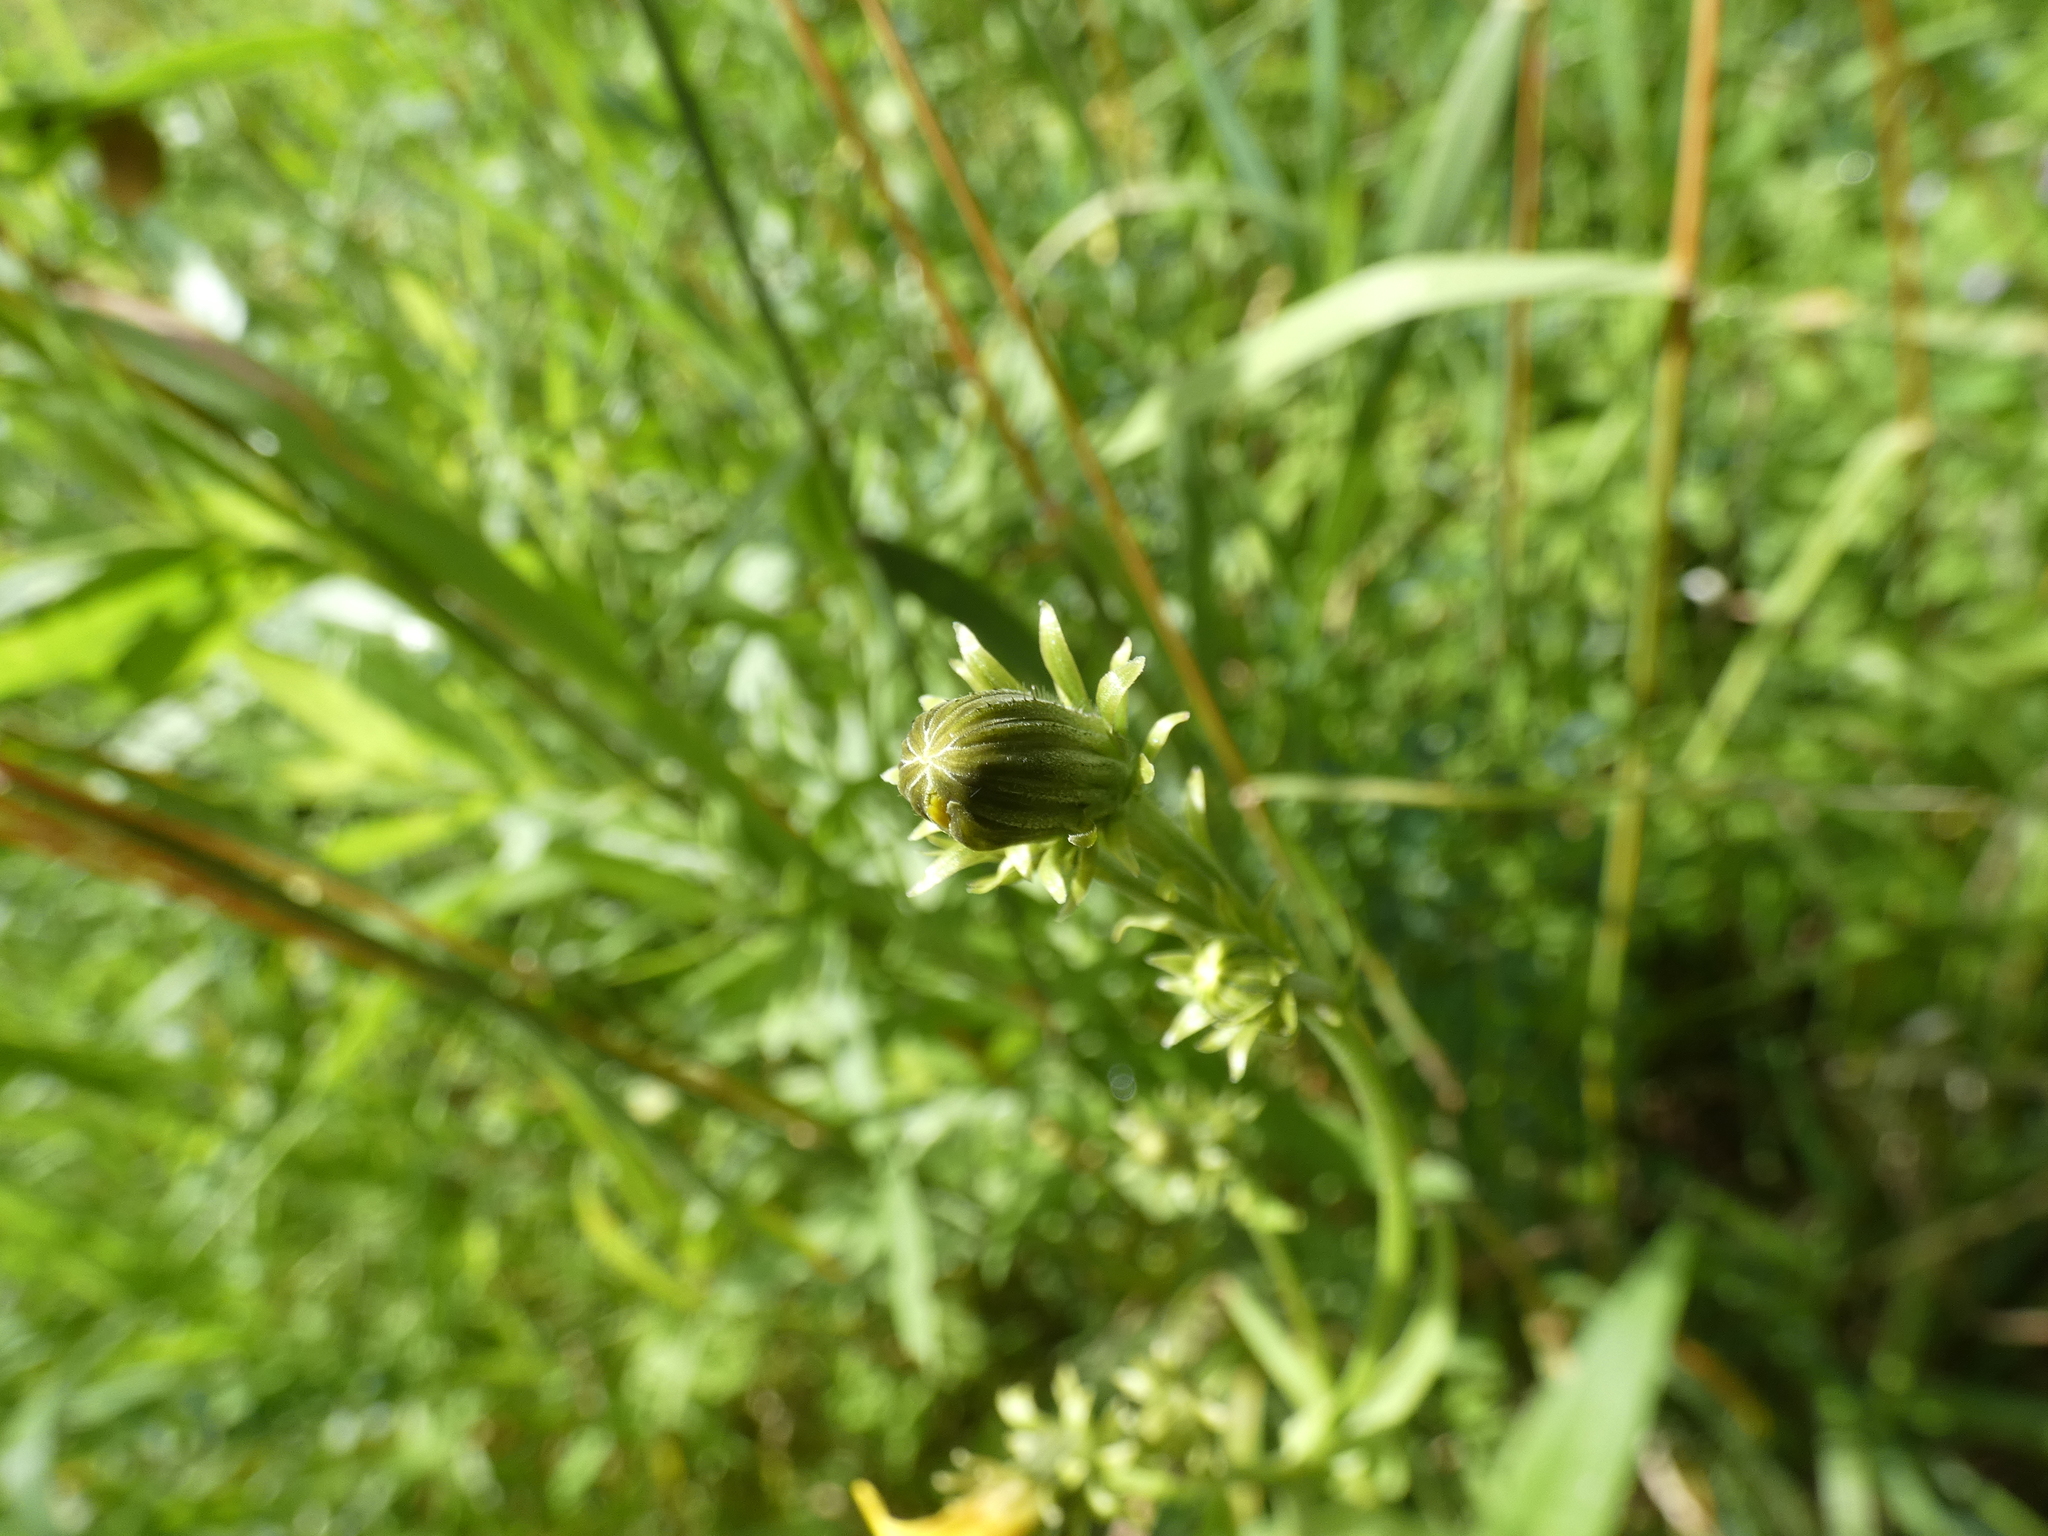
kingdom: Plantae
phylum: Tracheophyta
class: Magnoliopsida
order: Asterales
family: Asteraceae
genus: Picris
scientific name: Picris hieracioides
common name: Hawkweed oxtongue
